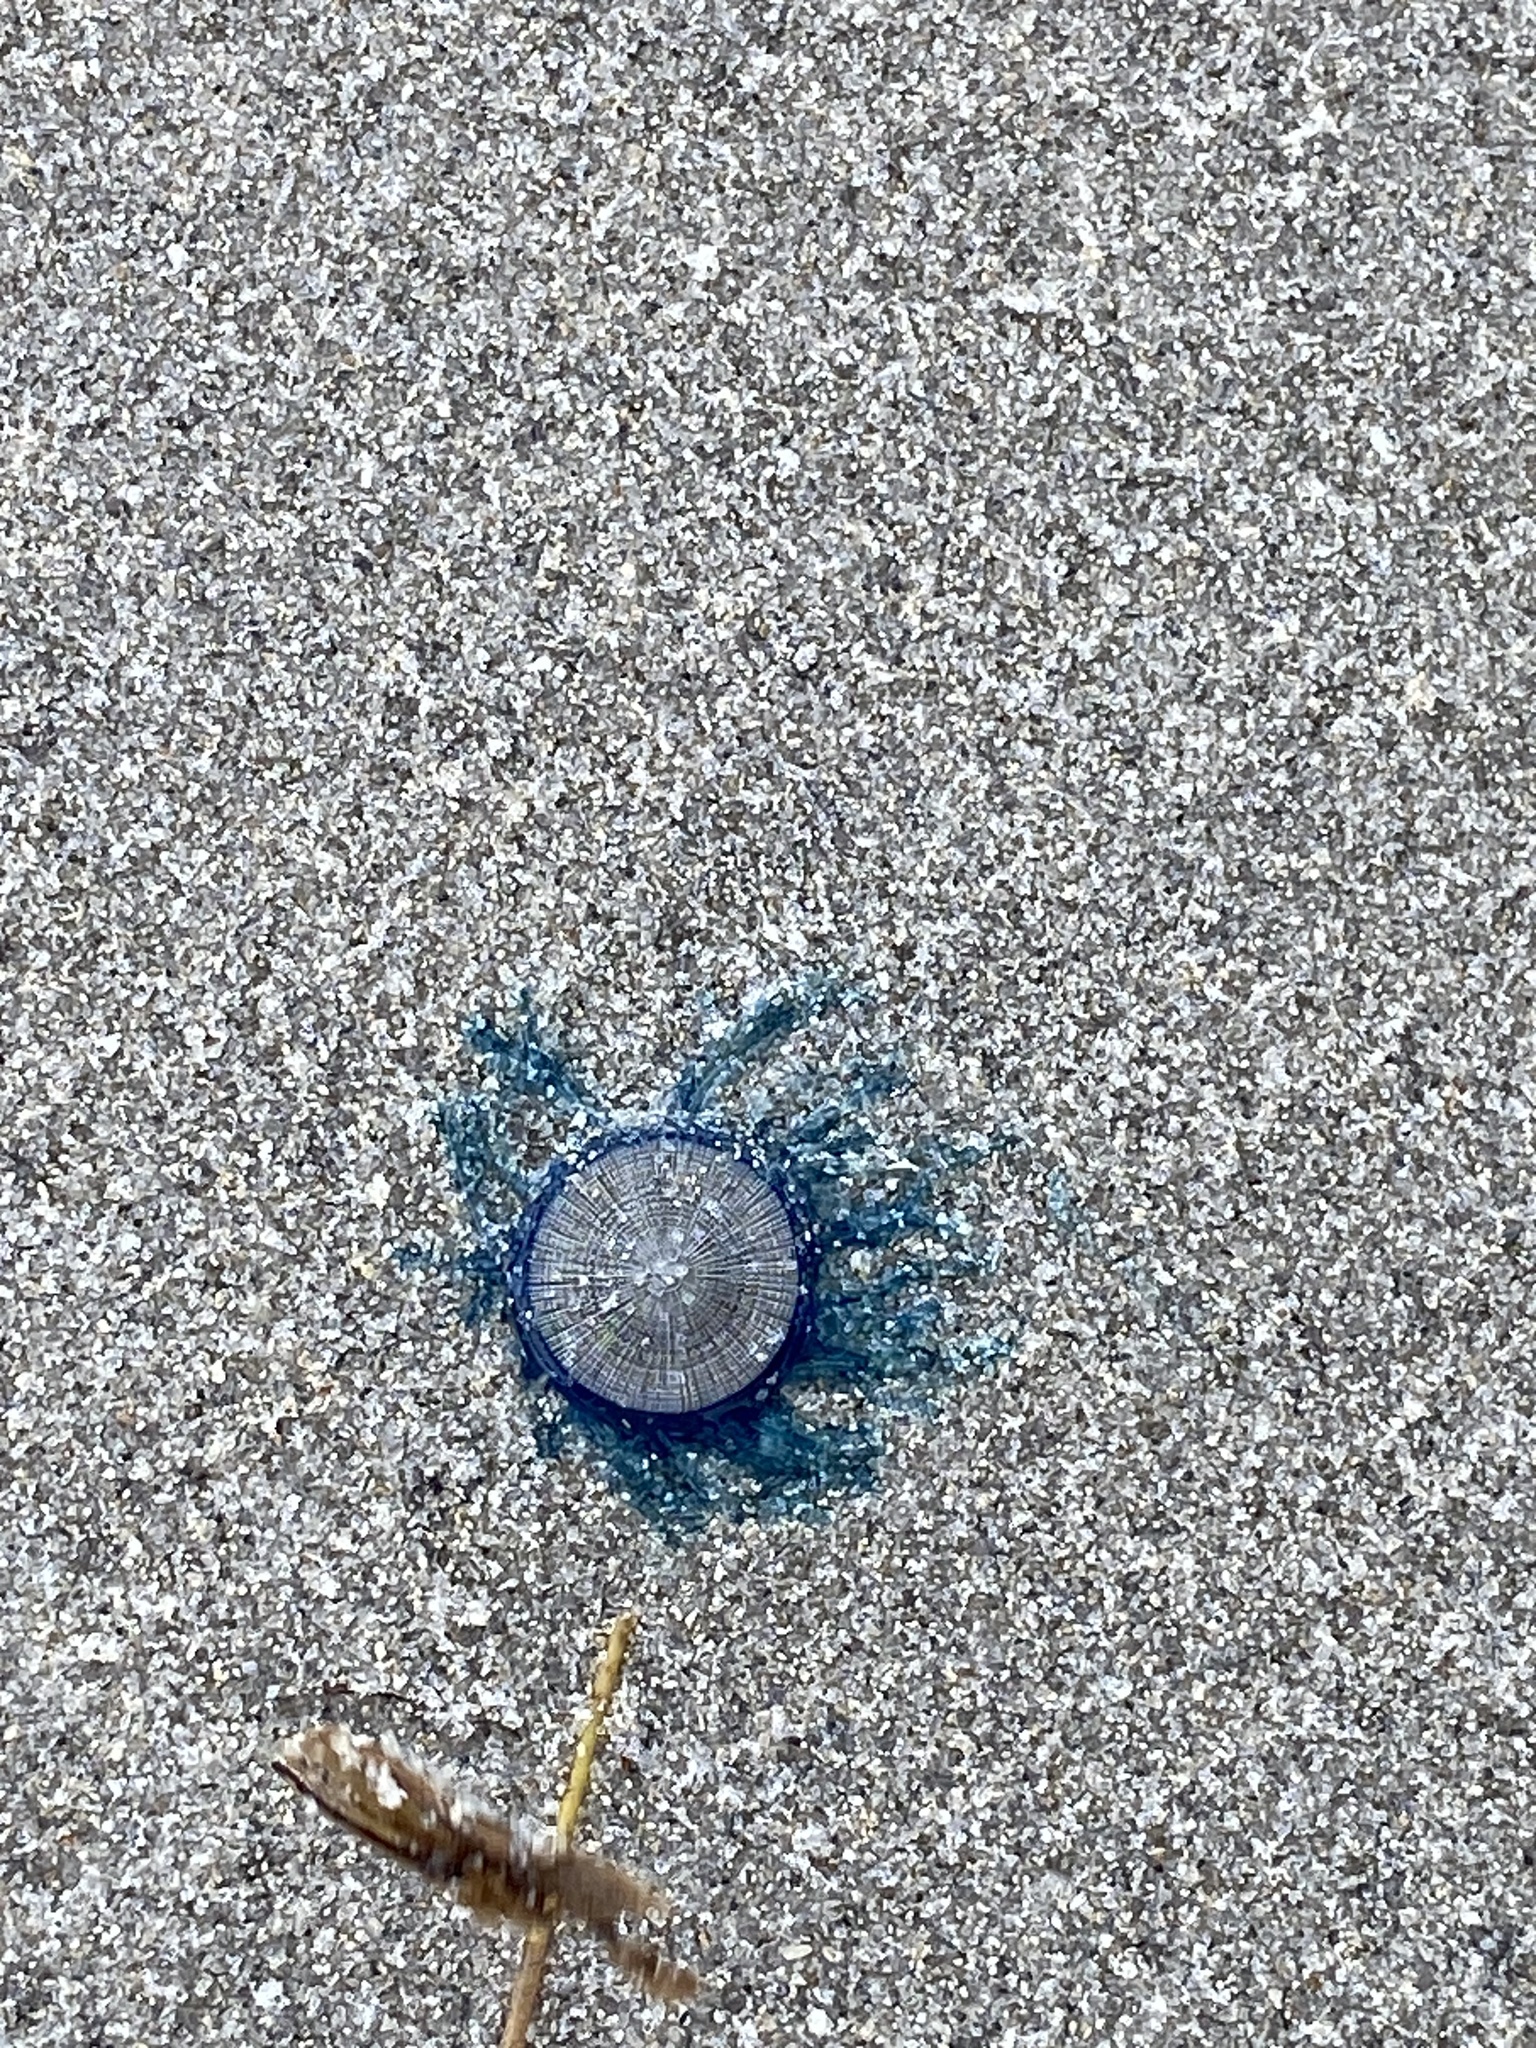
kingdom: Animalia
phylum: Cnidaria
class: Hydrozoa
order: Anthoathecata
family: Porpitidae
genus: Porpita
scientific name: Porpita porpita
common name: Blue button
